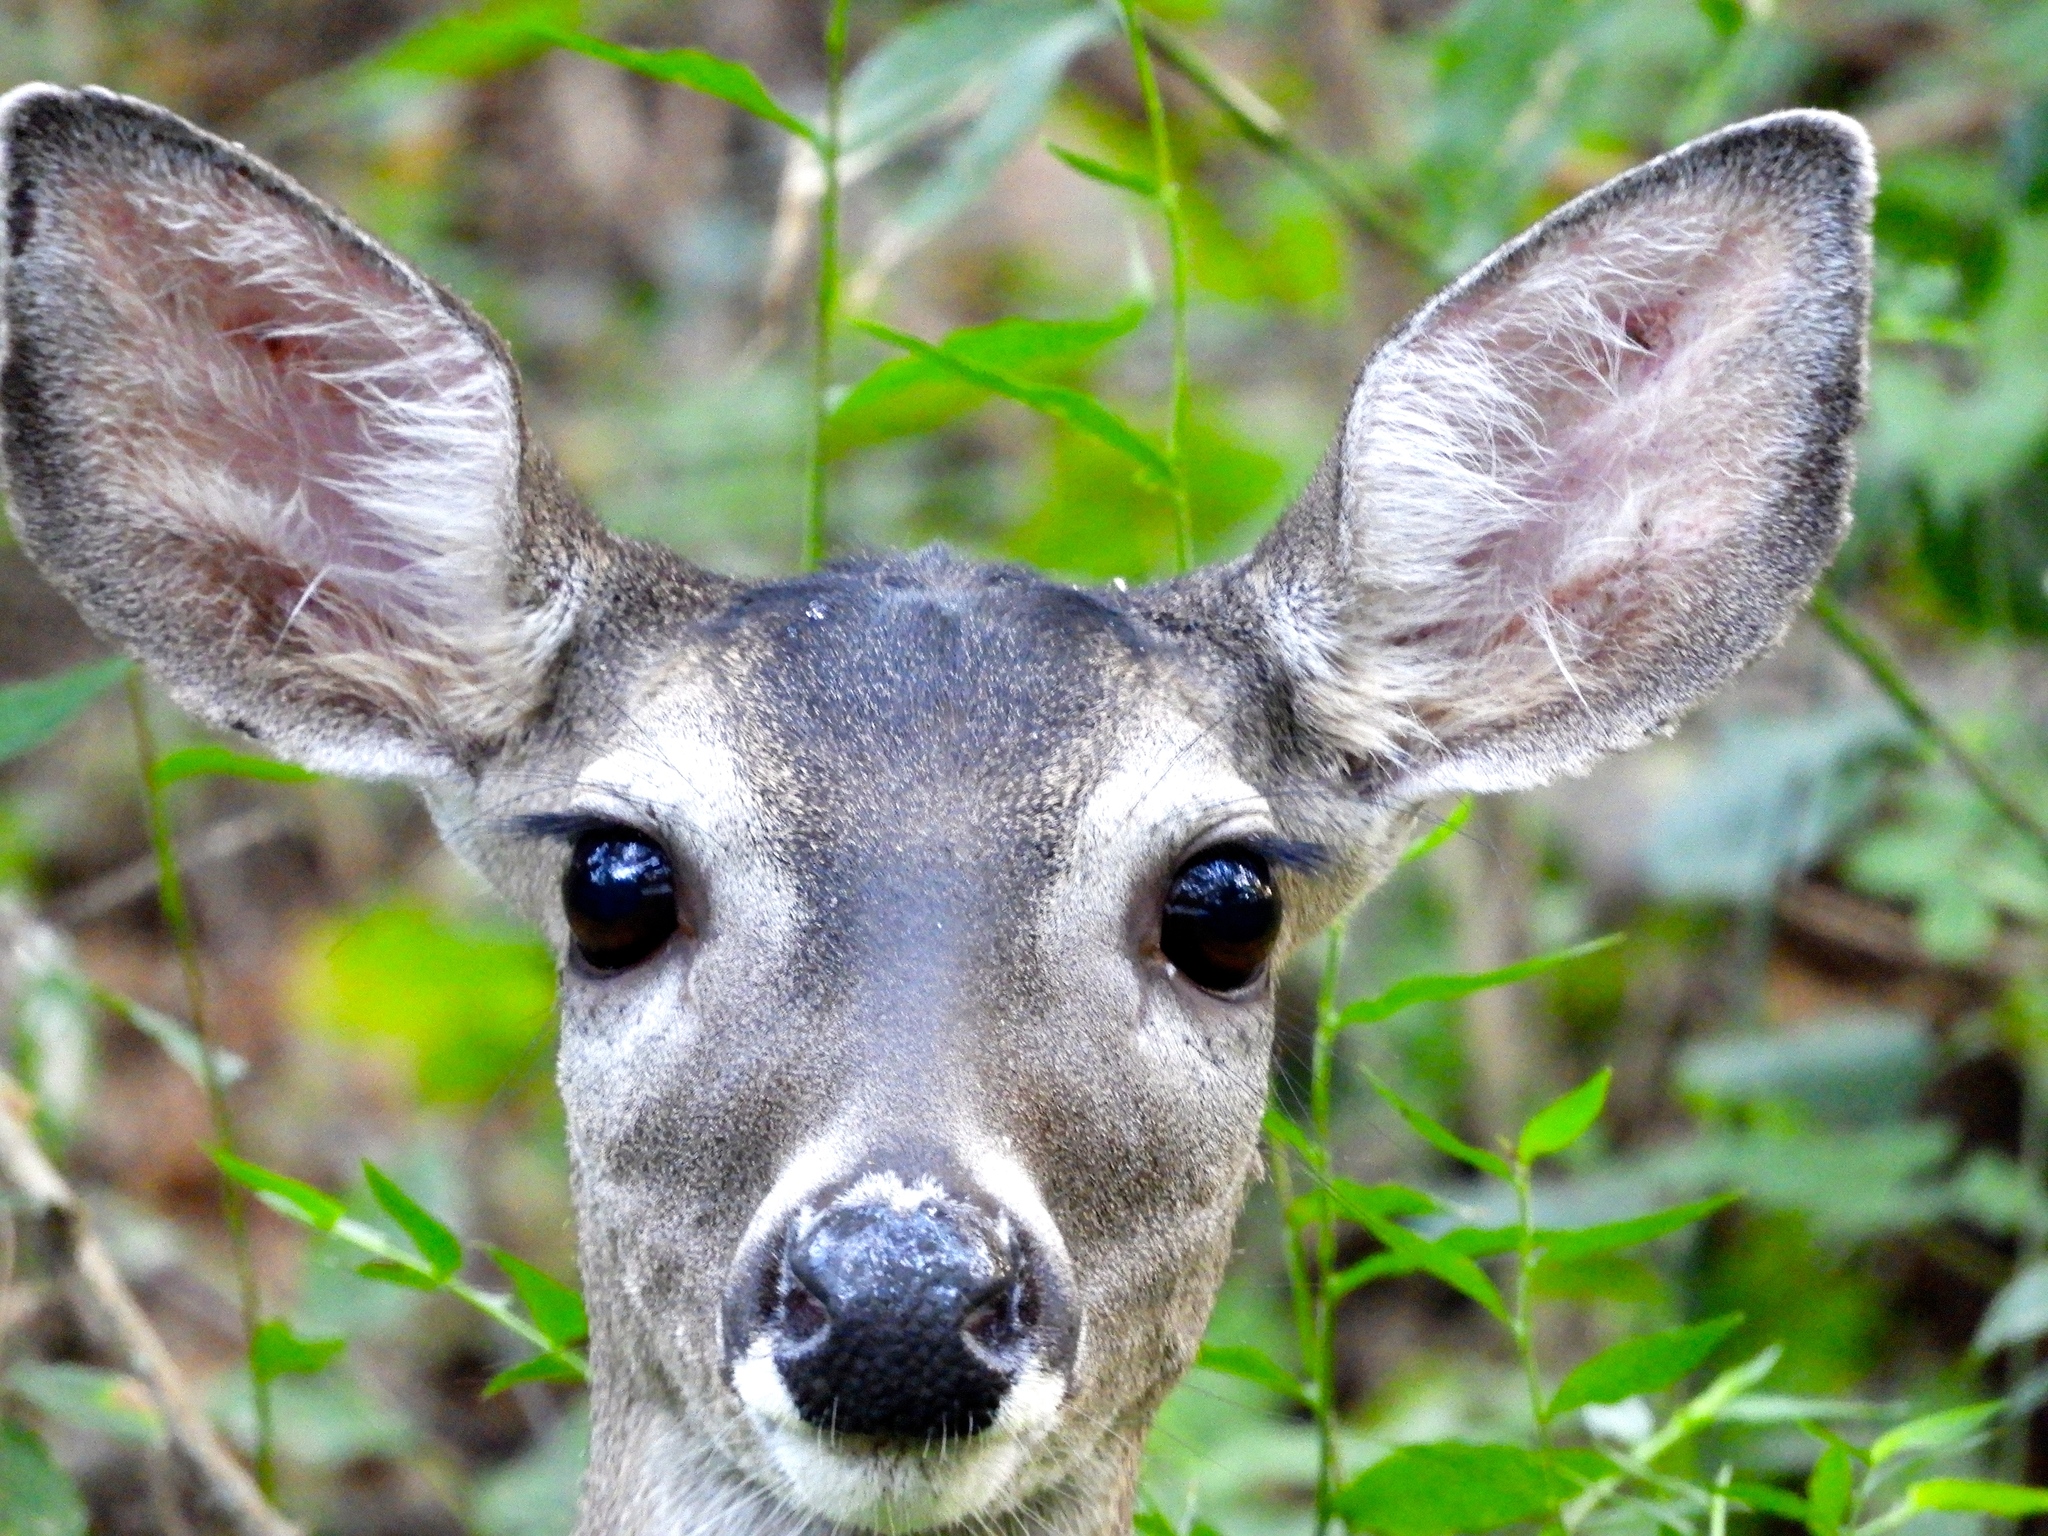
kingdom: Animalia
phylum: Chordata
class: Mammalia
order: Artiodactyla
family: Cervidae
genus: Odocoileus
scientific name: Odocoileus virginianus
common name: White-tailed deer
